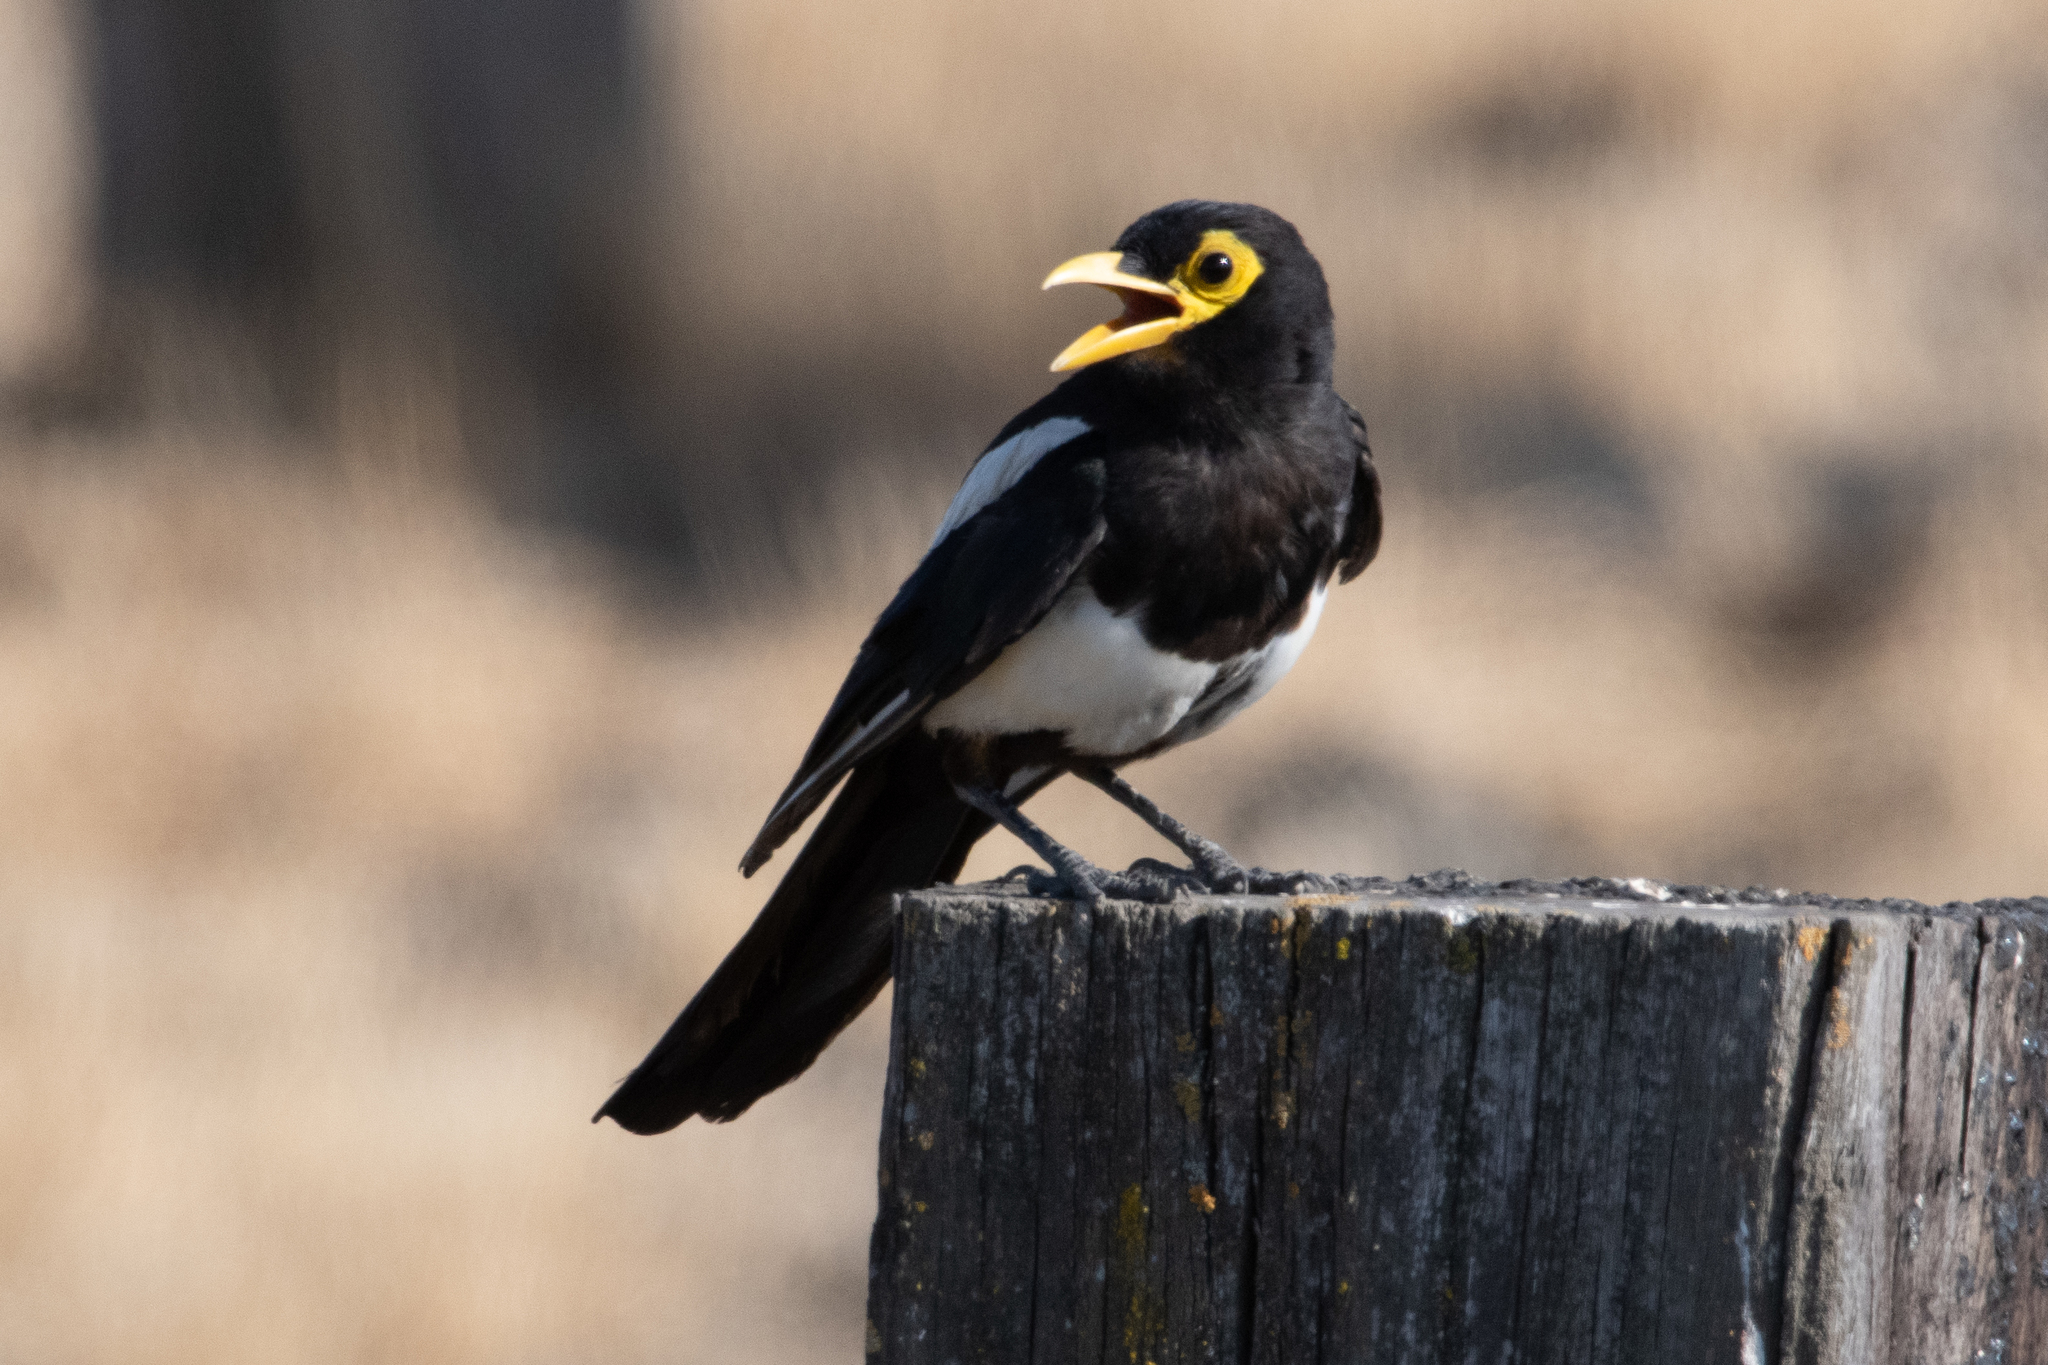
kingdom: Animalia
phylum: Chordata
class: Aves
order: Passeriformes
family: Corvidae
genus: Pica
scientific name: Pica nuttalli
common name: Yellow-billed magpie
